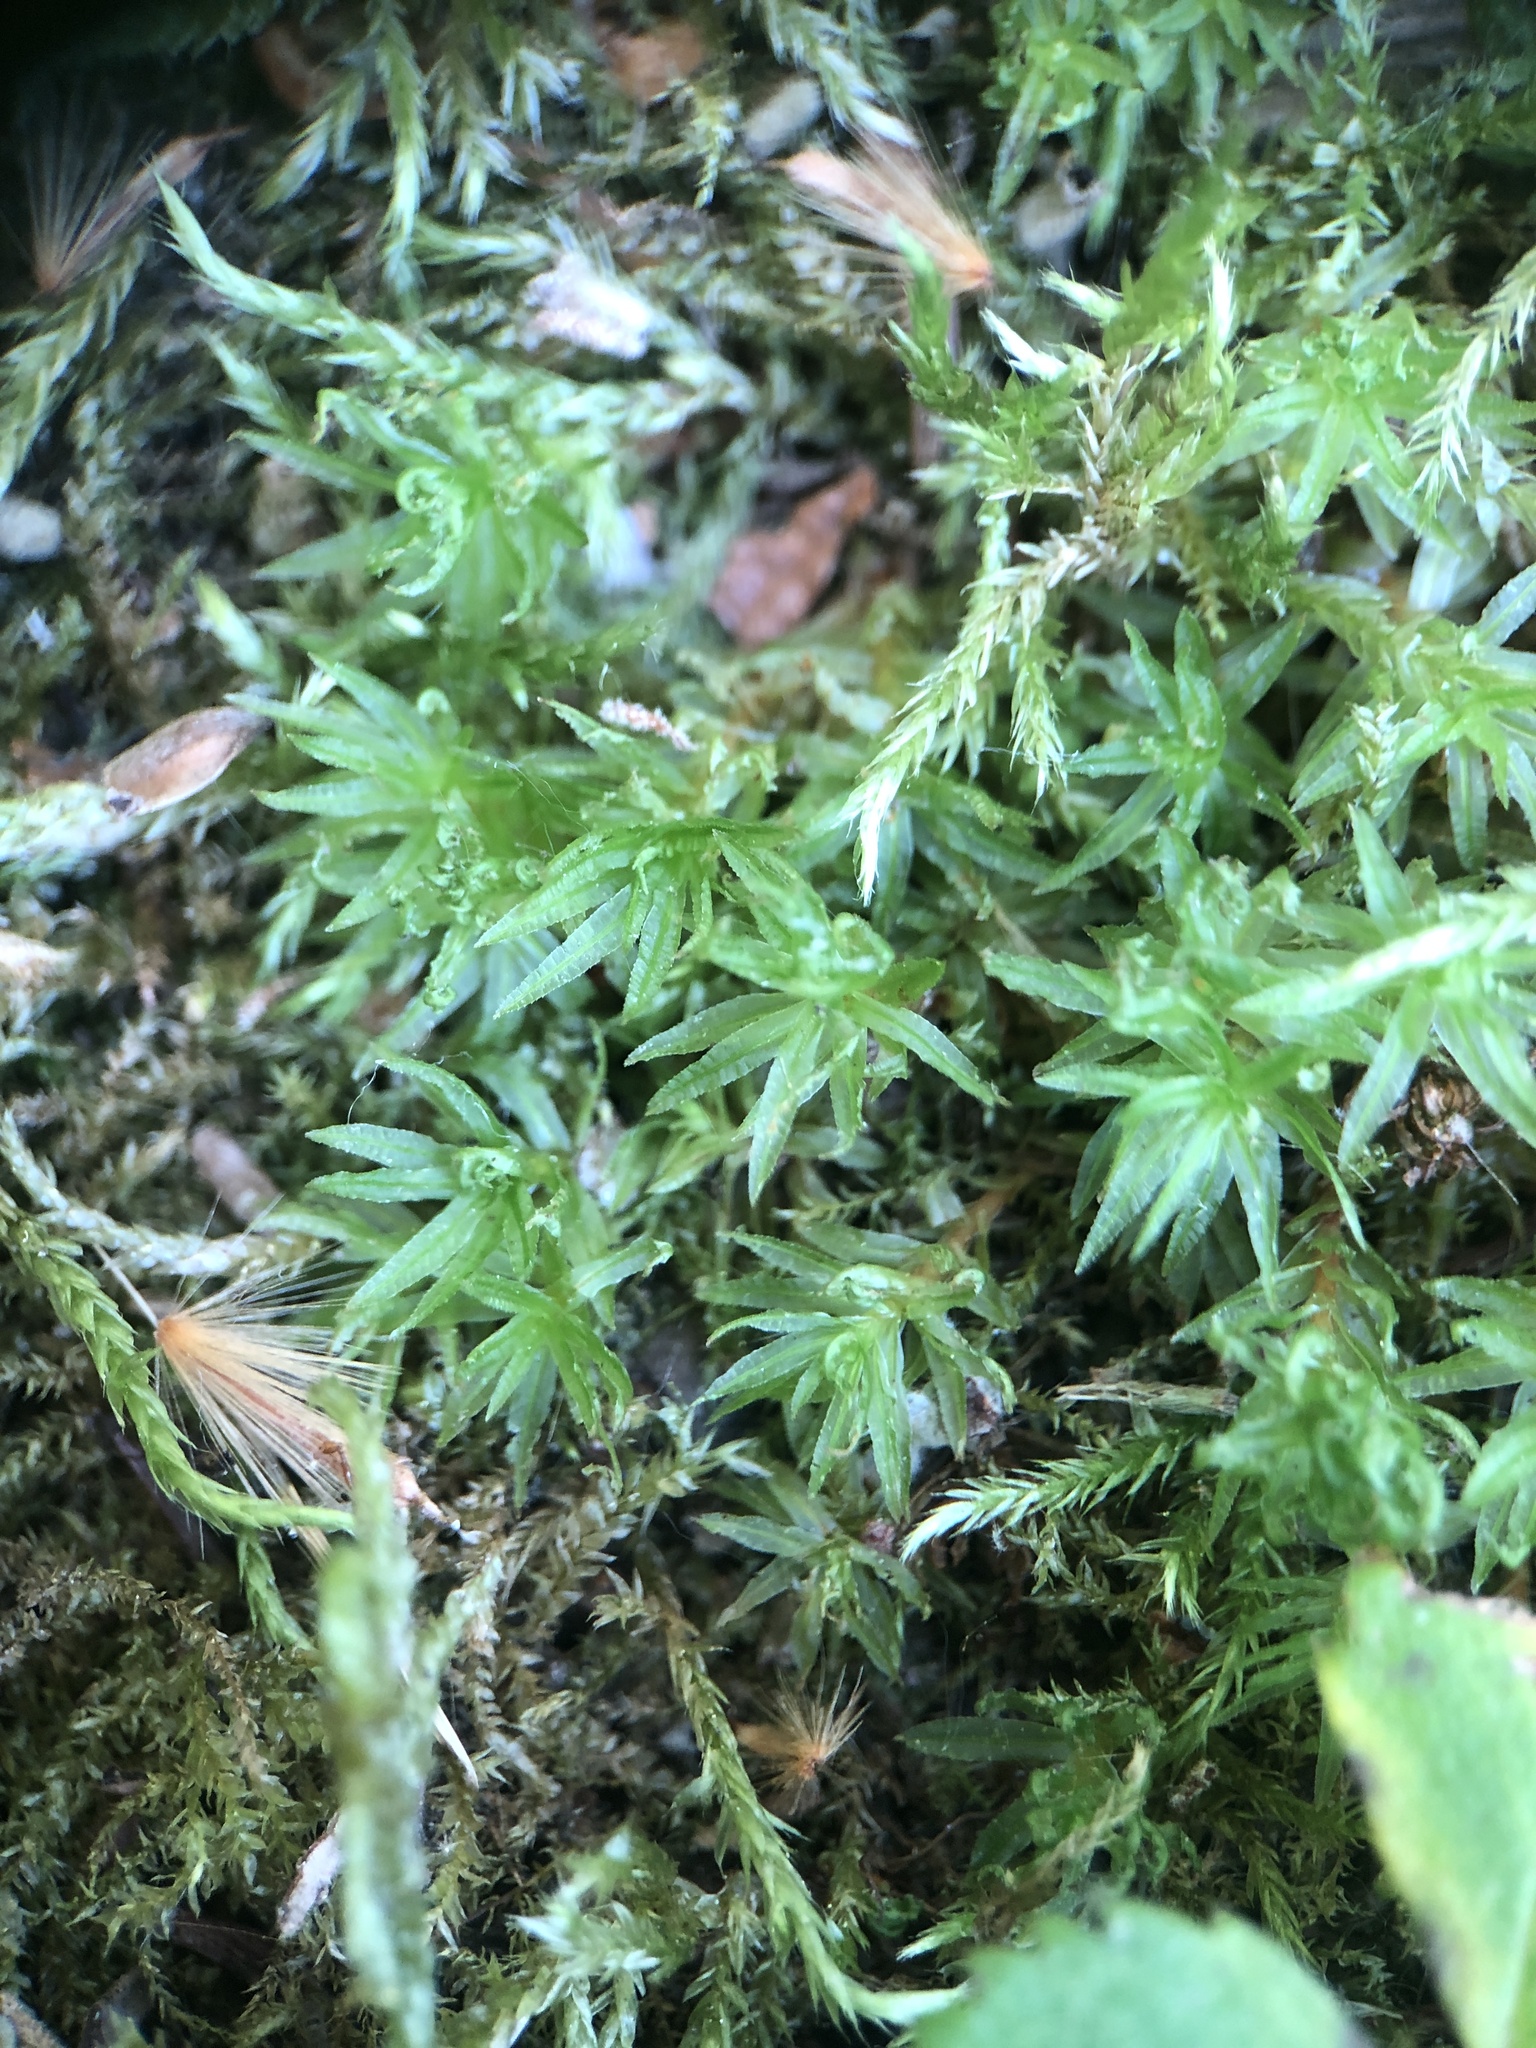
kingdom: Plantae
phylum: Bryophyta
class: Polytrichopsida
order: Polytrichales
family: Polytrichaceae
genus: Atrichum
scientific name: Atrichum undulatum
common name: Common smoothcap
